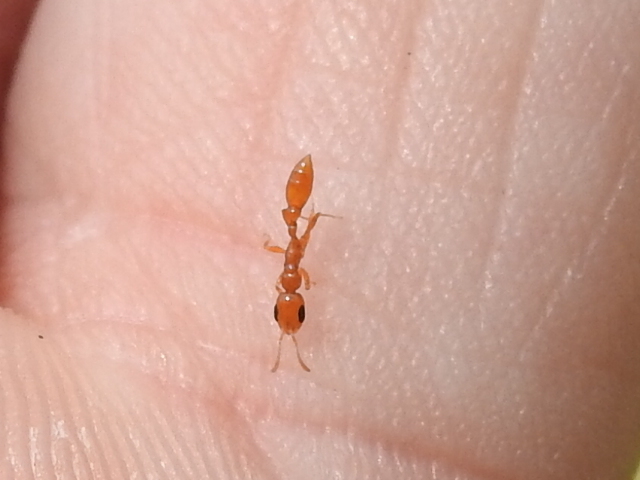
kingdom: Animalia
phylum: Arthropoda
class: Insecta
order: Hymenoptera
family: Formicidae
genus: Pseudomyrmex
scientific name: Pseudomyrmex pallidus
